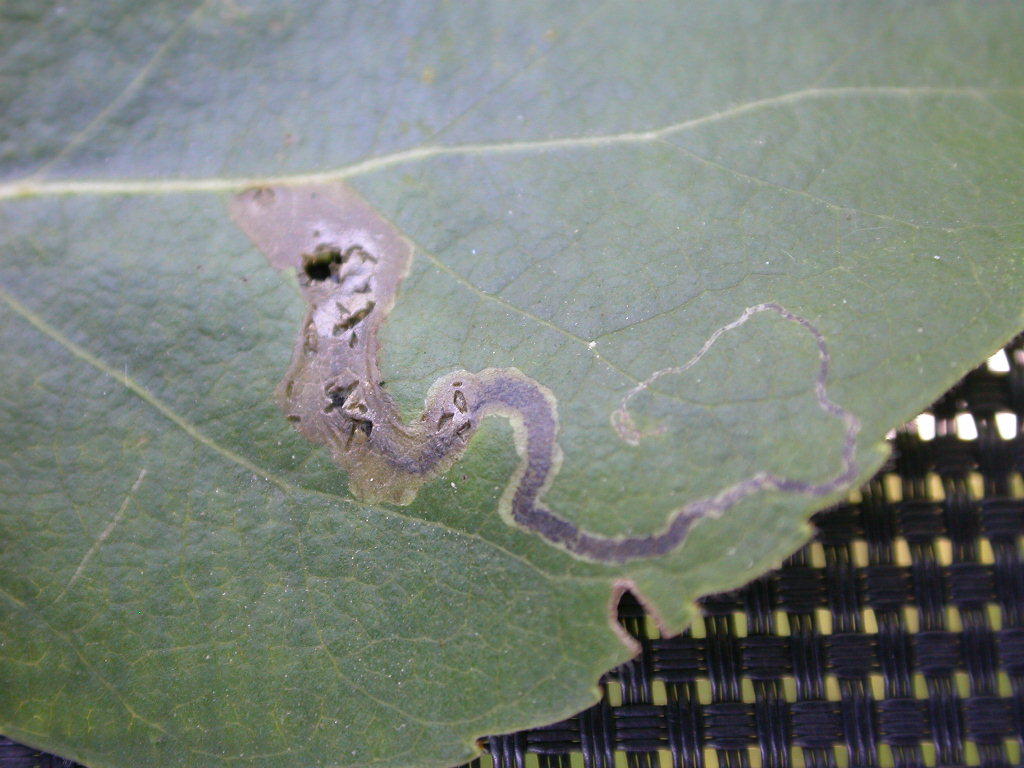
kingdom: Animalia
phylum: Arthropoda
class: Insecta
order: Lepidoptera
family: Nepticulidae
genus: Stigmella
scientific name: Stigmella trimaculella
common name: Black-poplar pigmy
